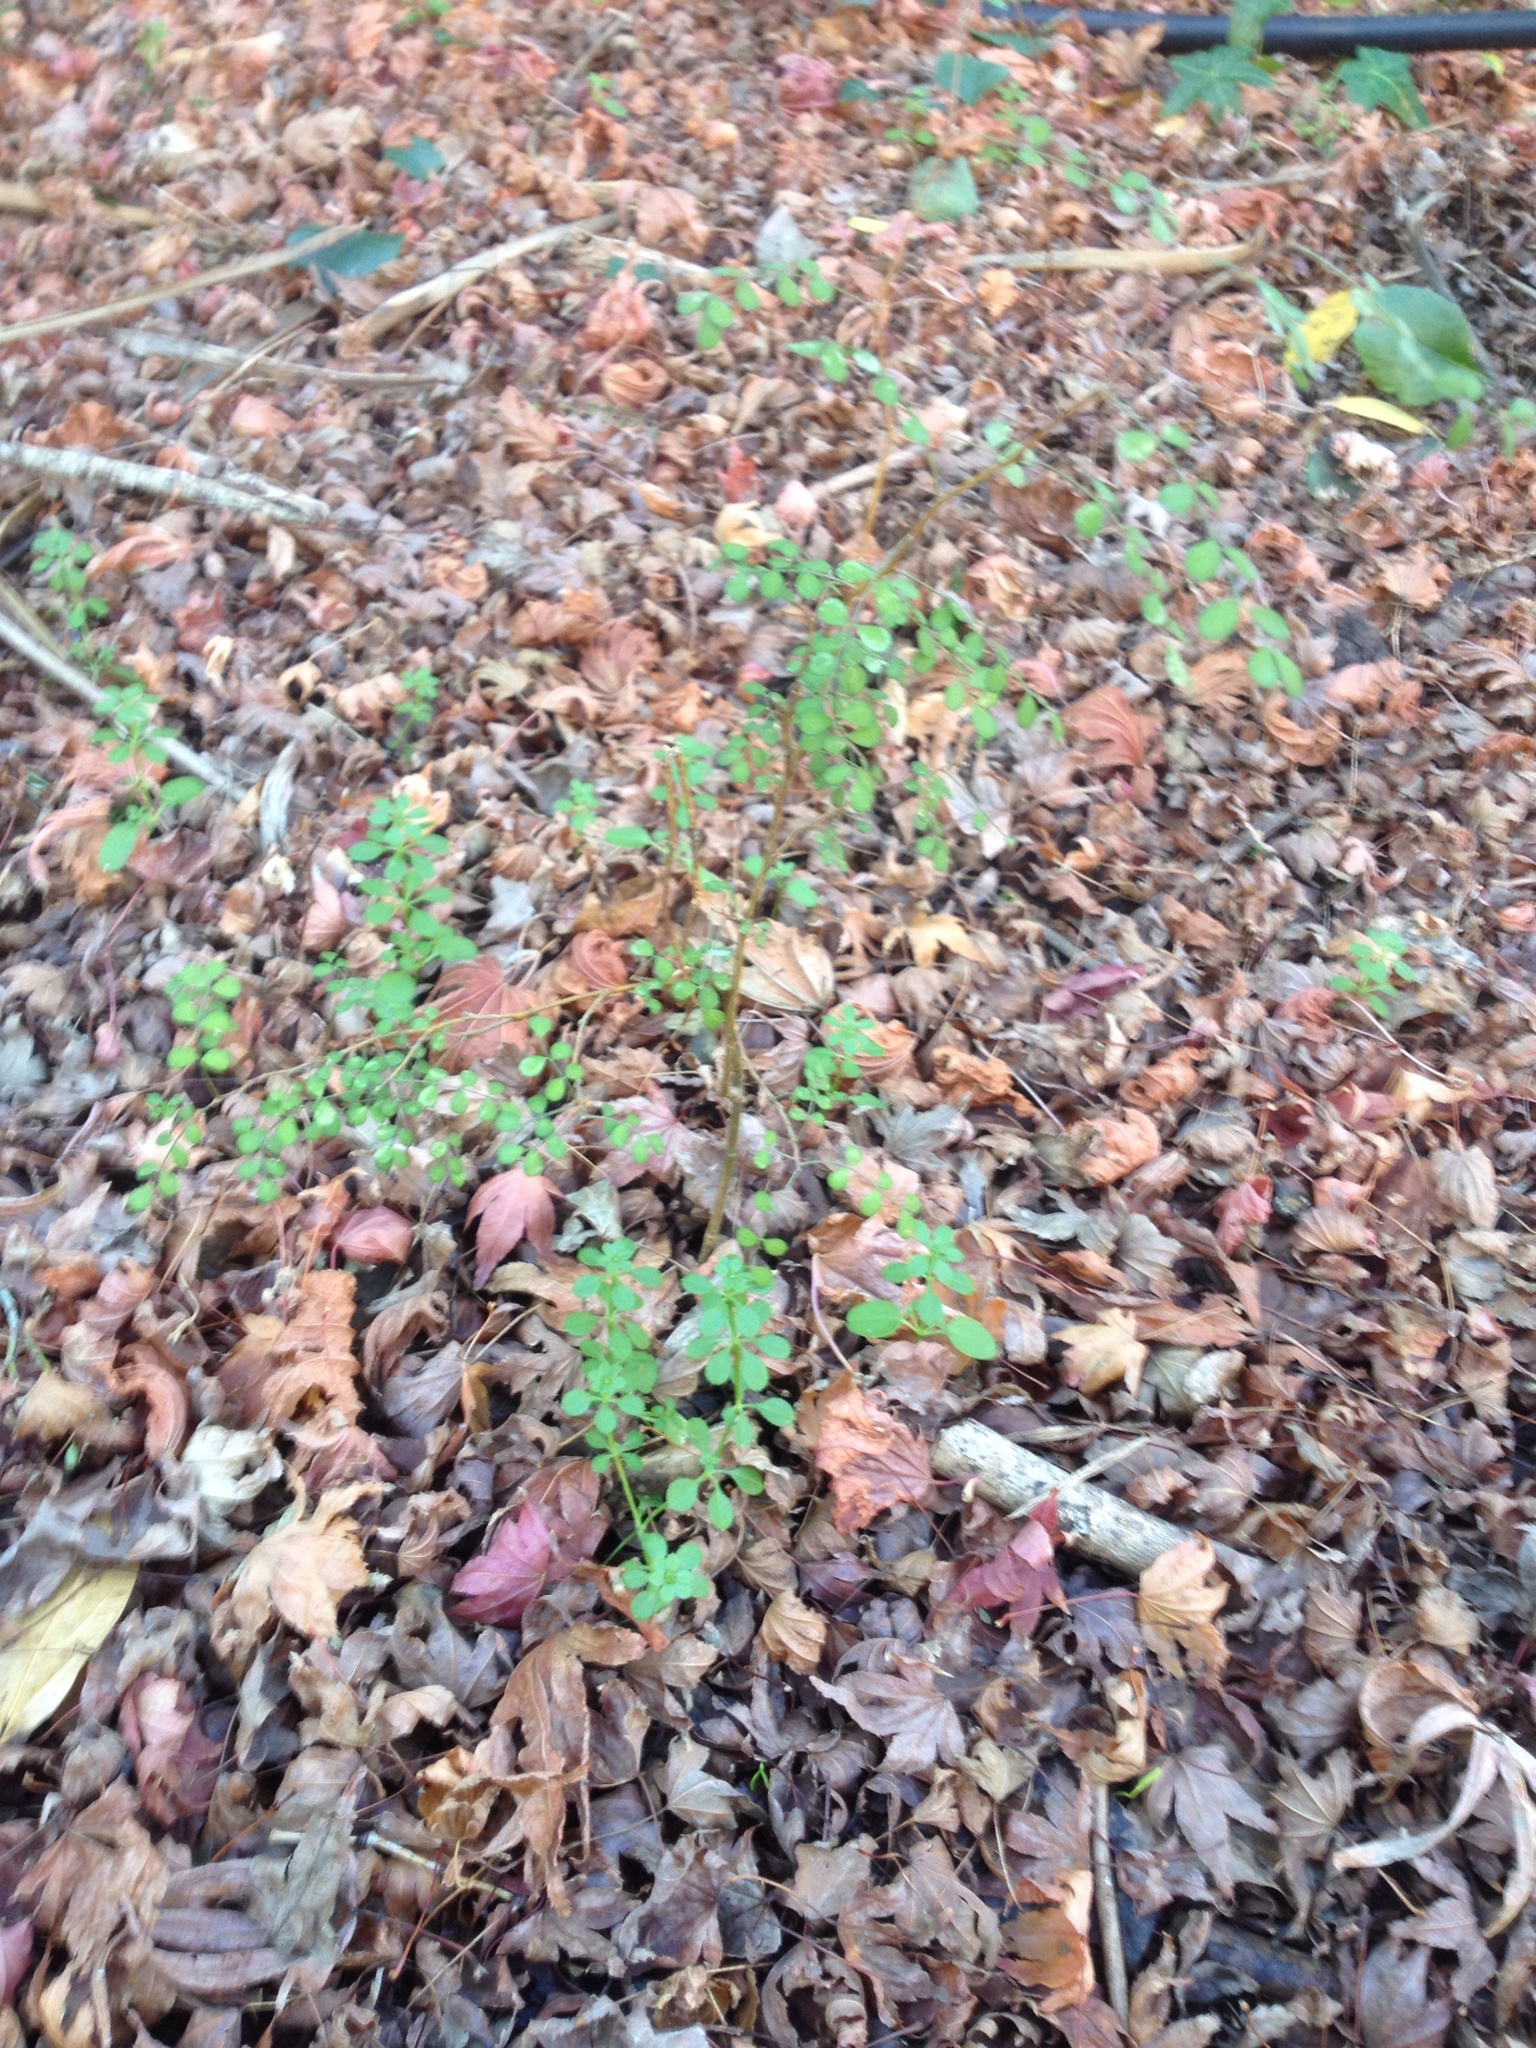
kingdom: Plantae
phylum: Tracheophyta
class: Magnoliopsida
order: Fabales
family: Fabaceae
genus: Sophora
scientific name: Sophora microphylla
